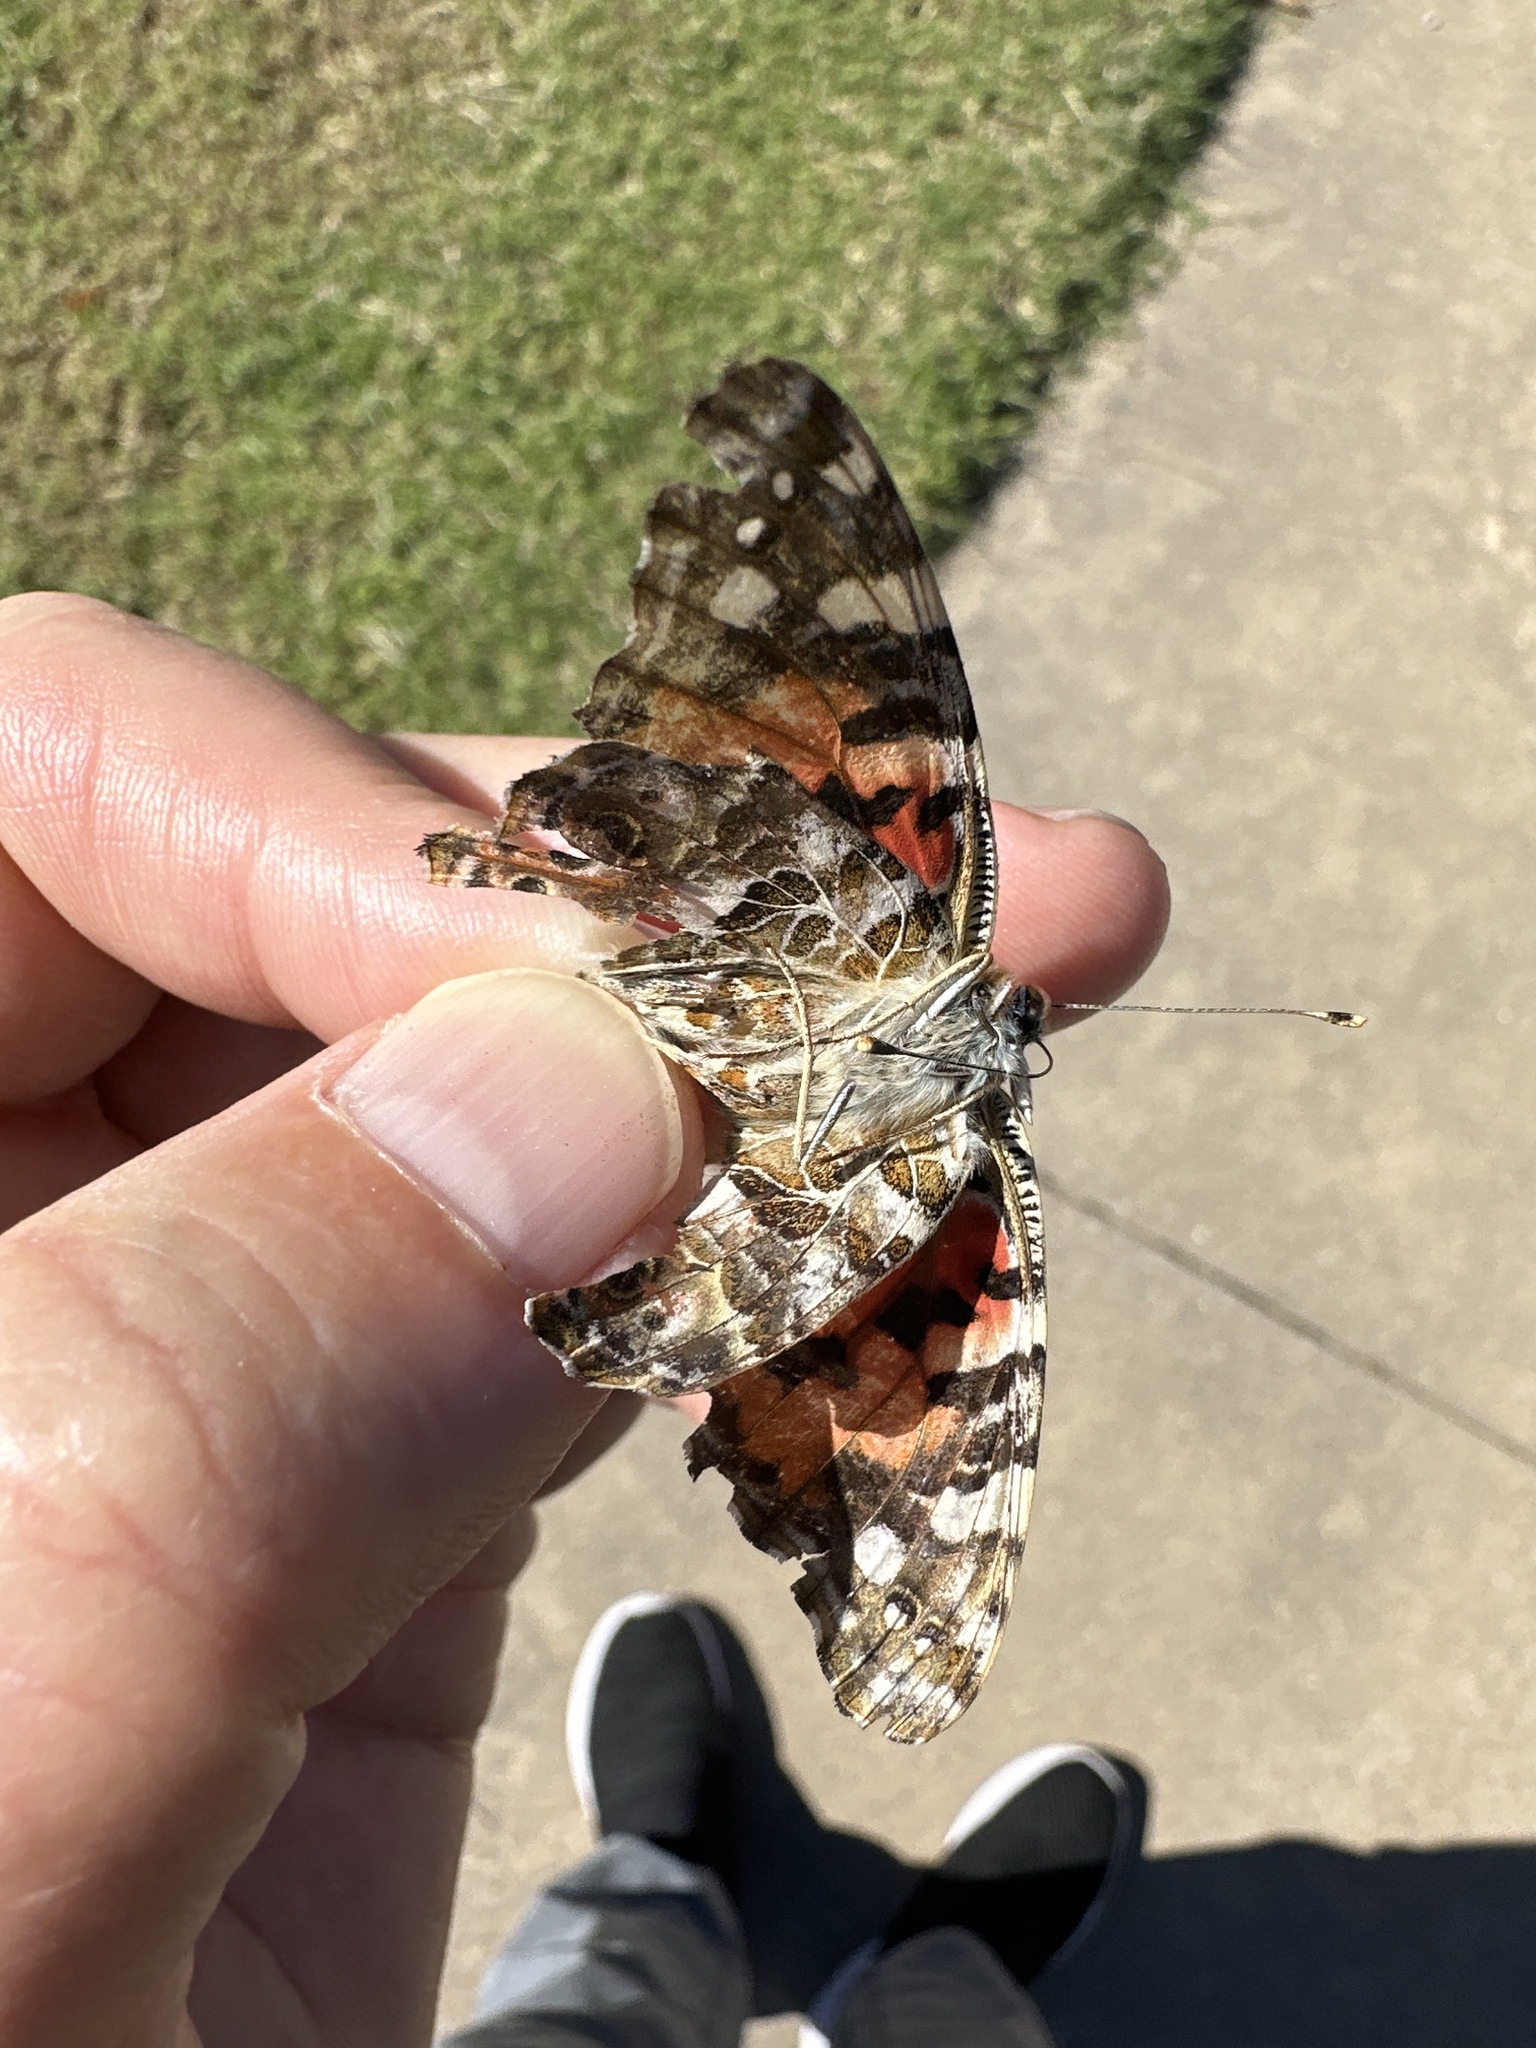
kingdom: Animalia
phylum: Arthropoda
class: Insecta
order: Lepidoptera
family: Nymphalidae
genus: Vanessa
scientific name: Vanessa cardui
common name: Painted lady
